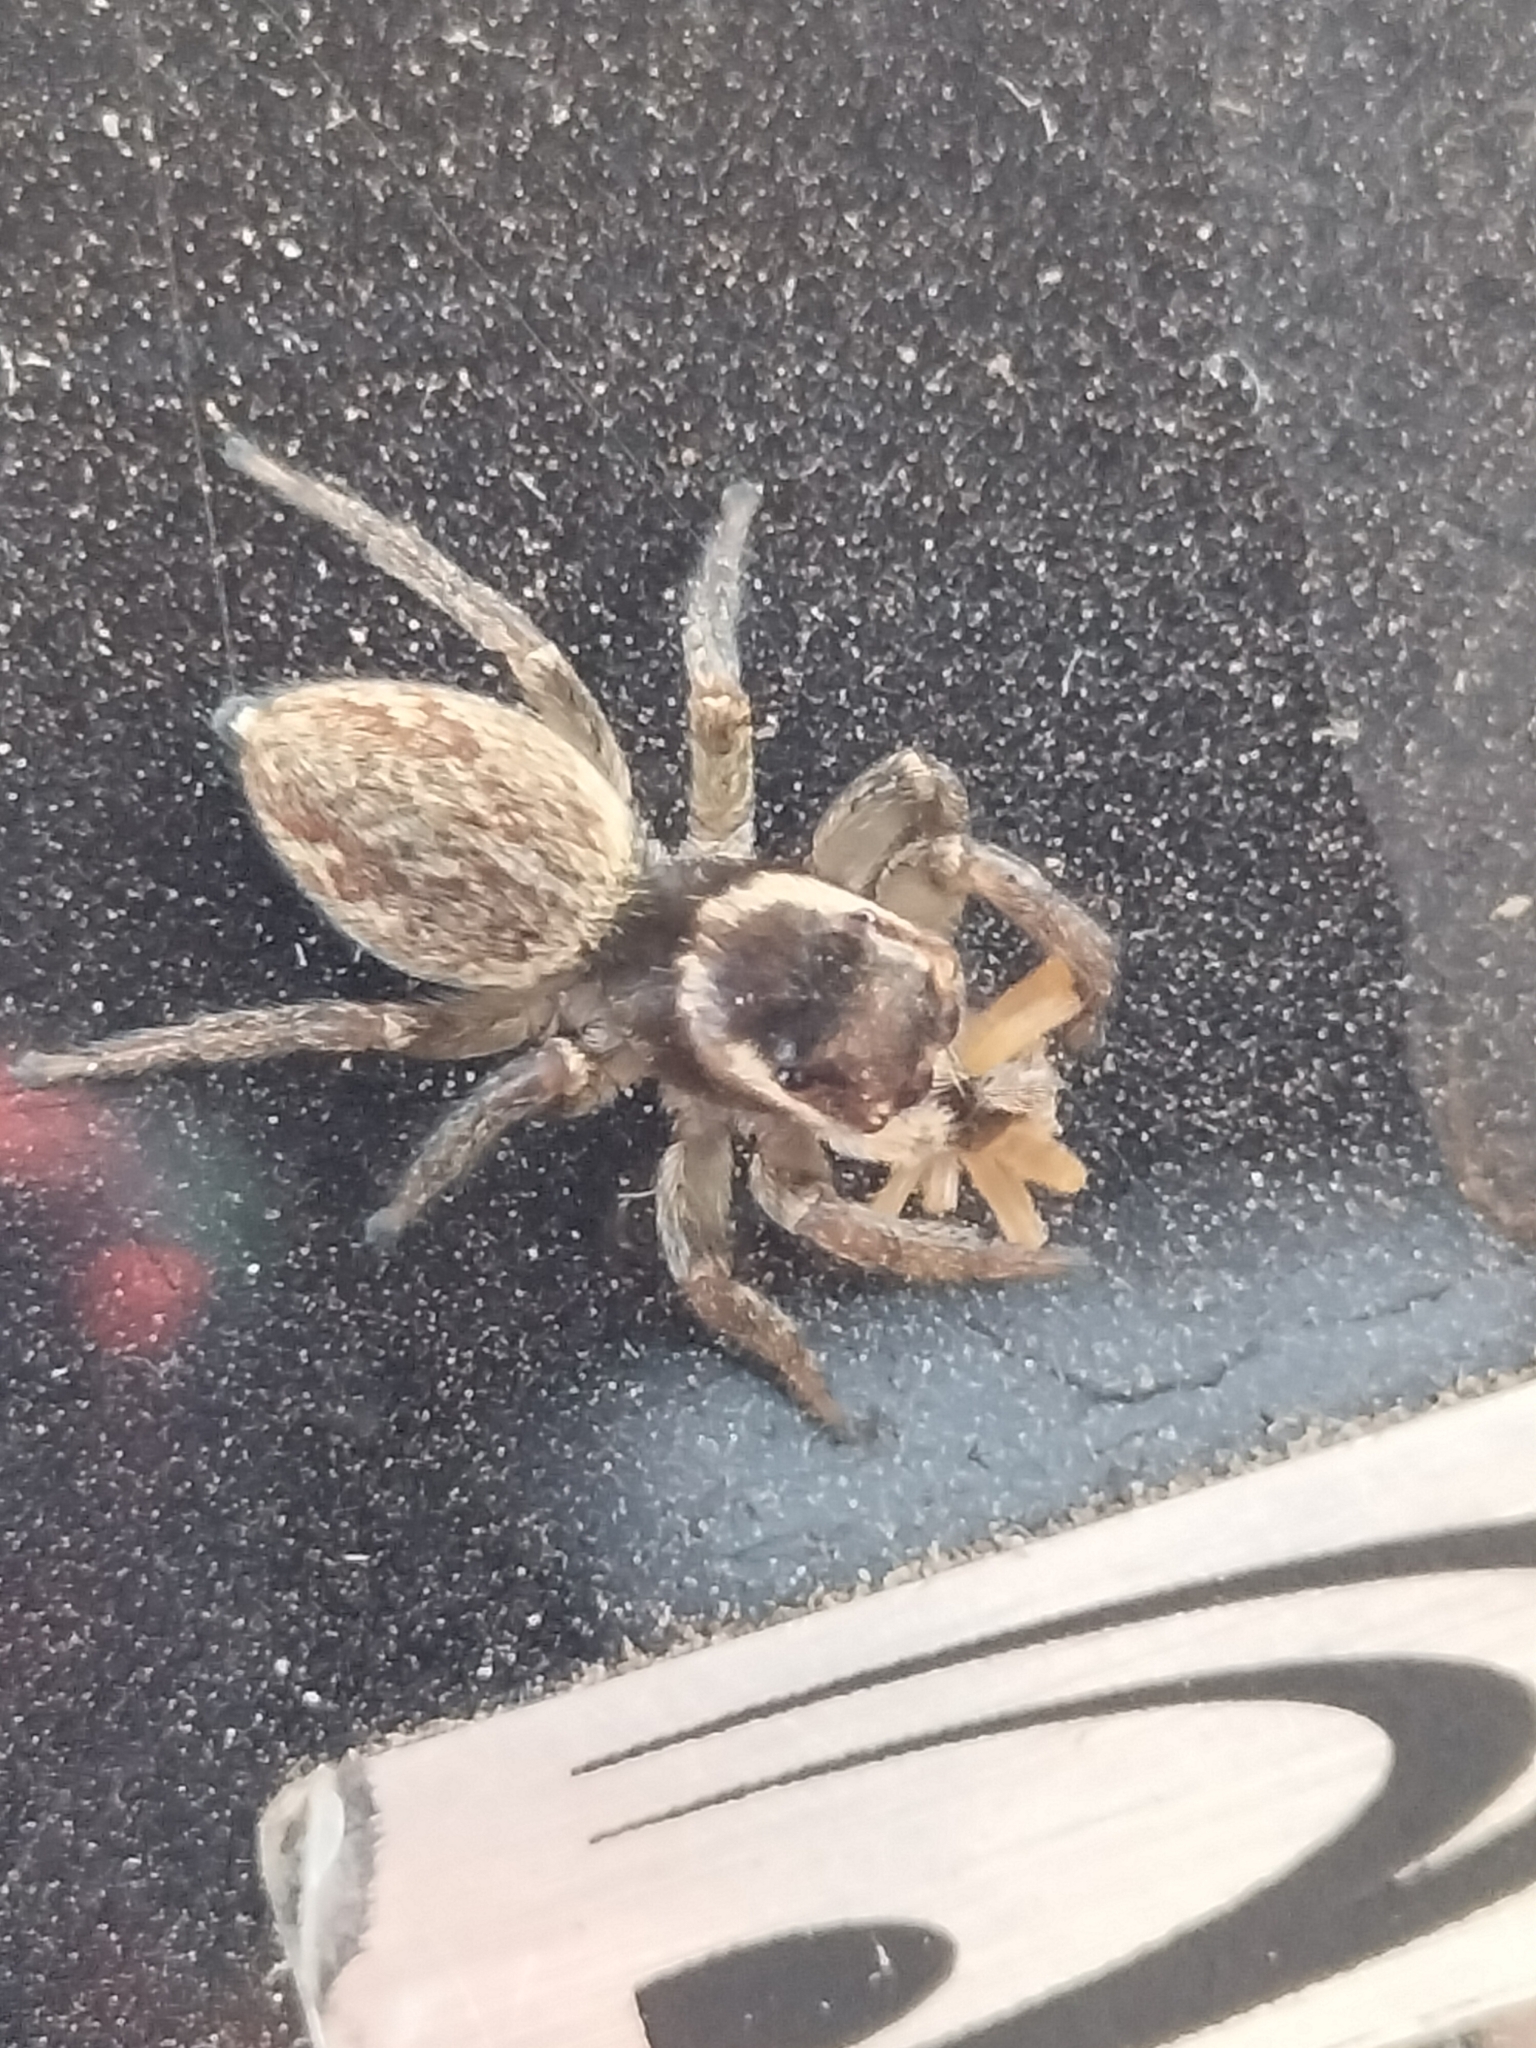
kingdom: Animalia
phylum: Arthropoda
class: Arachnida
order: Araneae
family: Salticidae
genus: Maratus
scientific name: Maratus griseus
